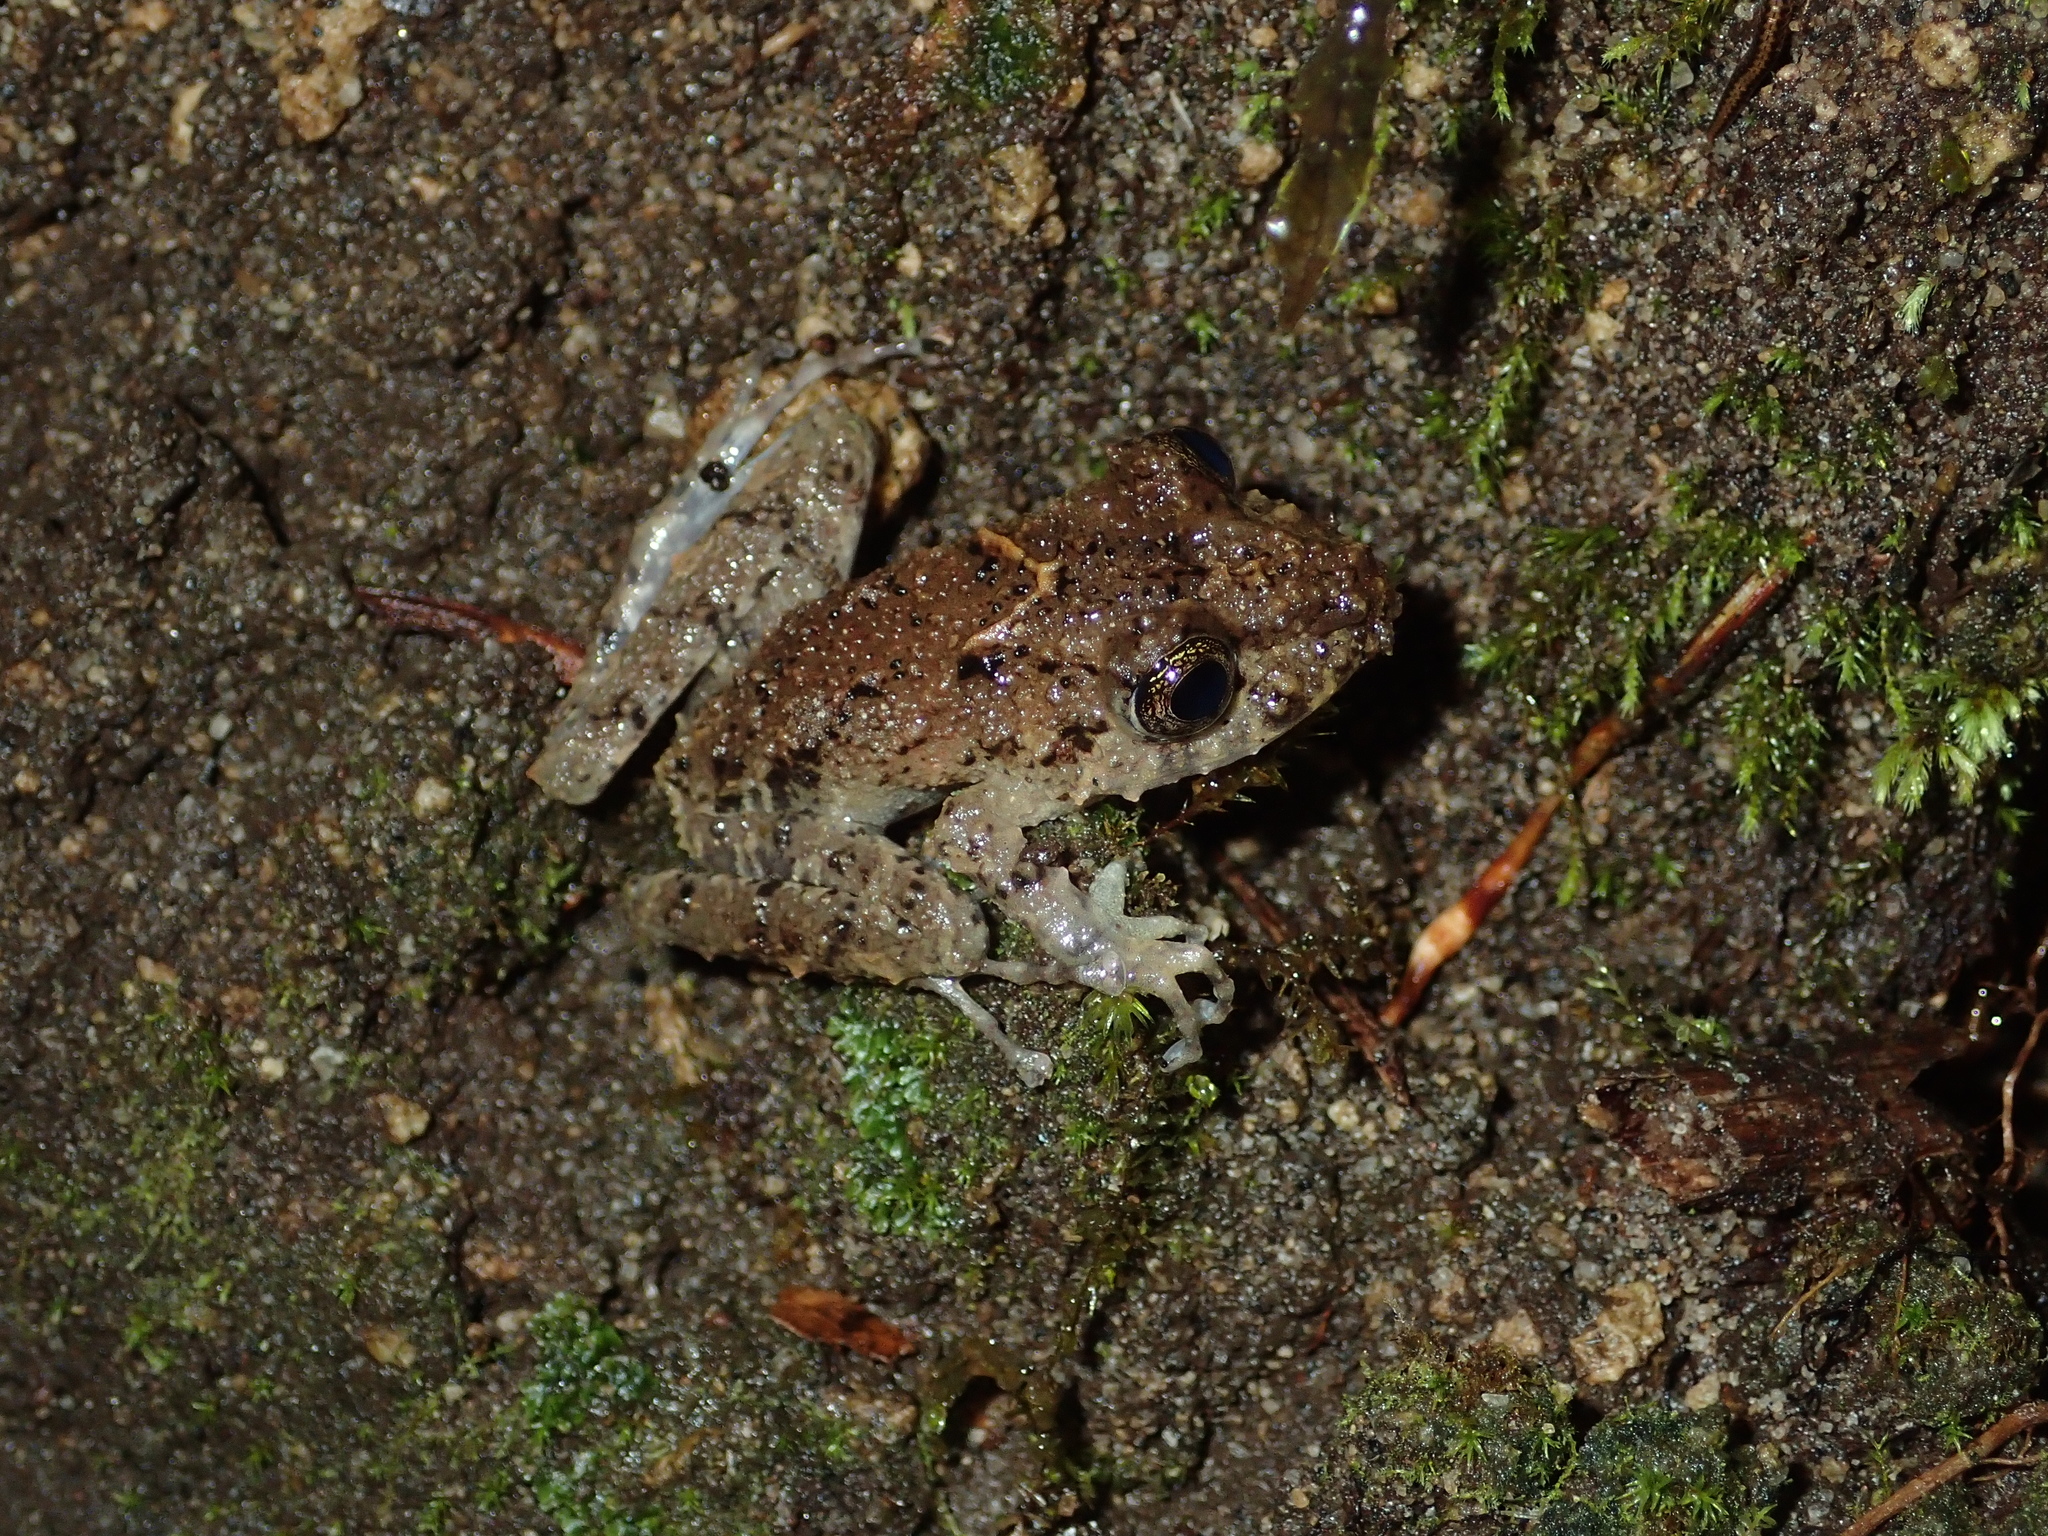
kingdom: Animalia
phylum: Chordata
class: Amphibia
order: Anura
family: Craugastoridae
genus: Pristimantis
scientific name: Pristimantis crenunguis
